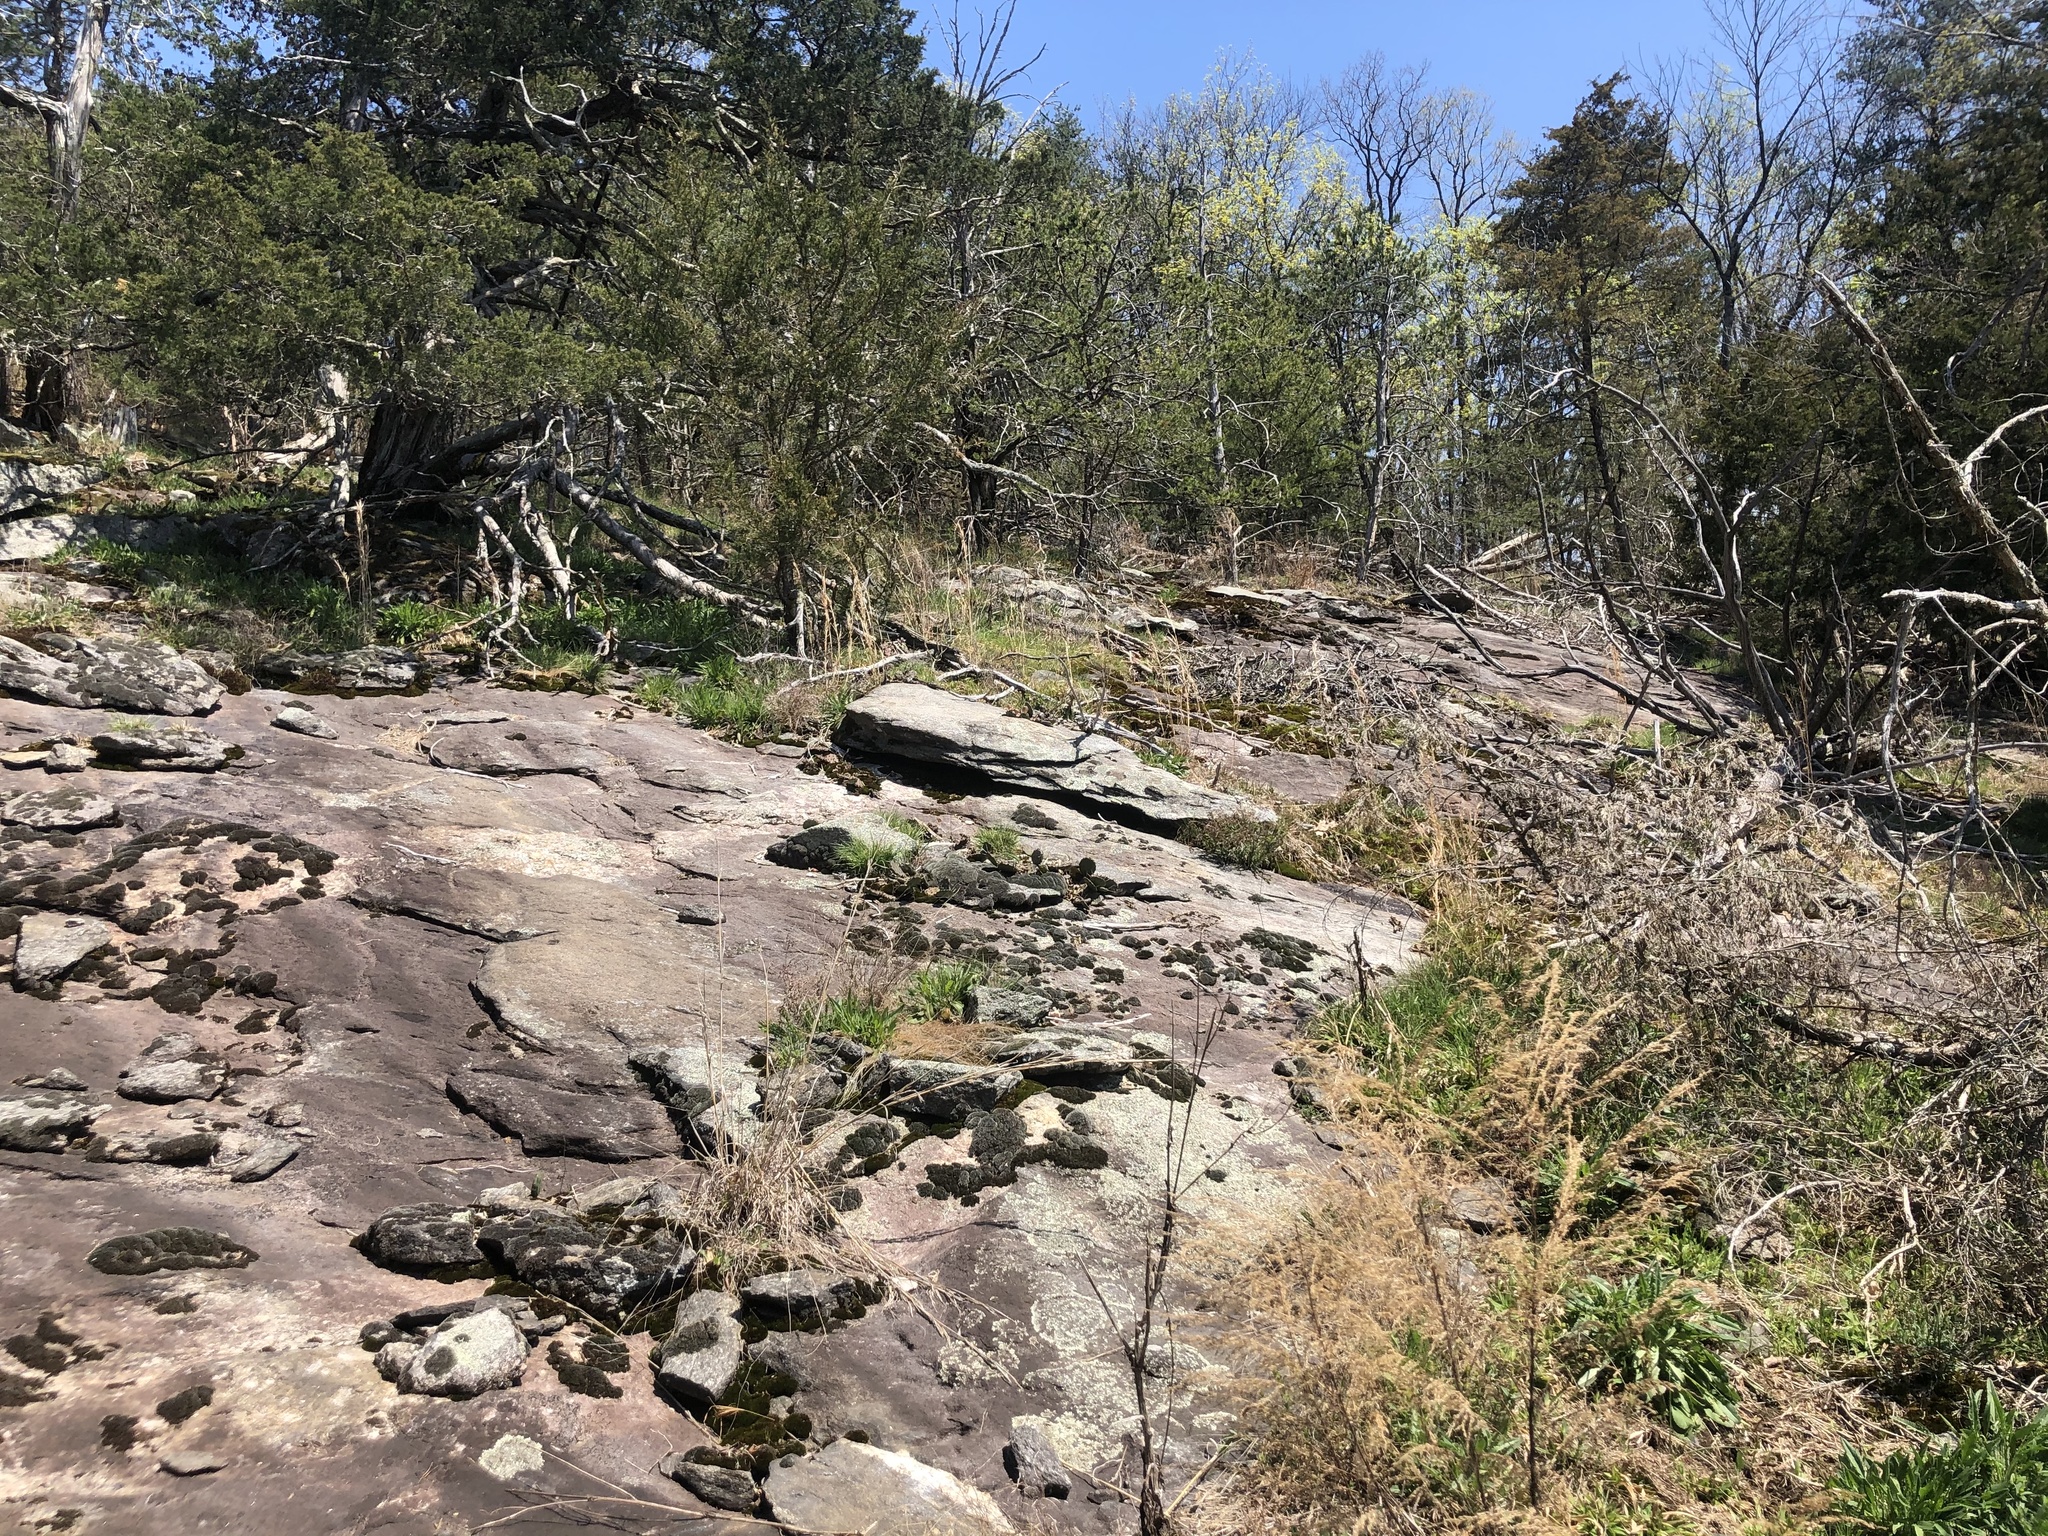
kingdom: Plantae
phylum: Tracheophyta
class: Magnoliopsida
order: Caryophyllales
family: Cactaceae
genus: Opuntia
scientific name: Opuntia mesacantha
